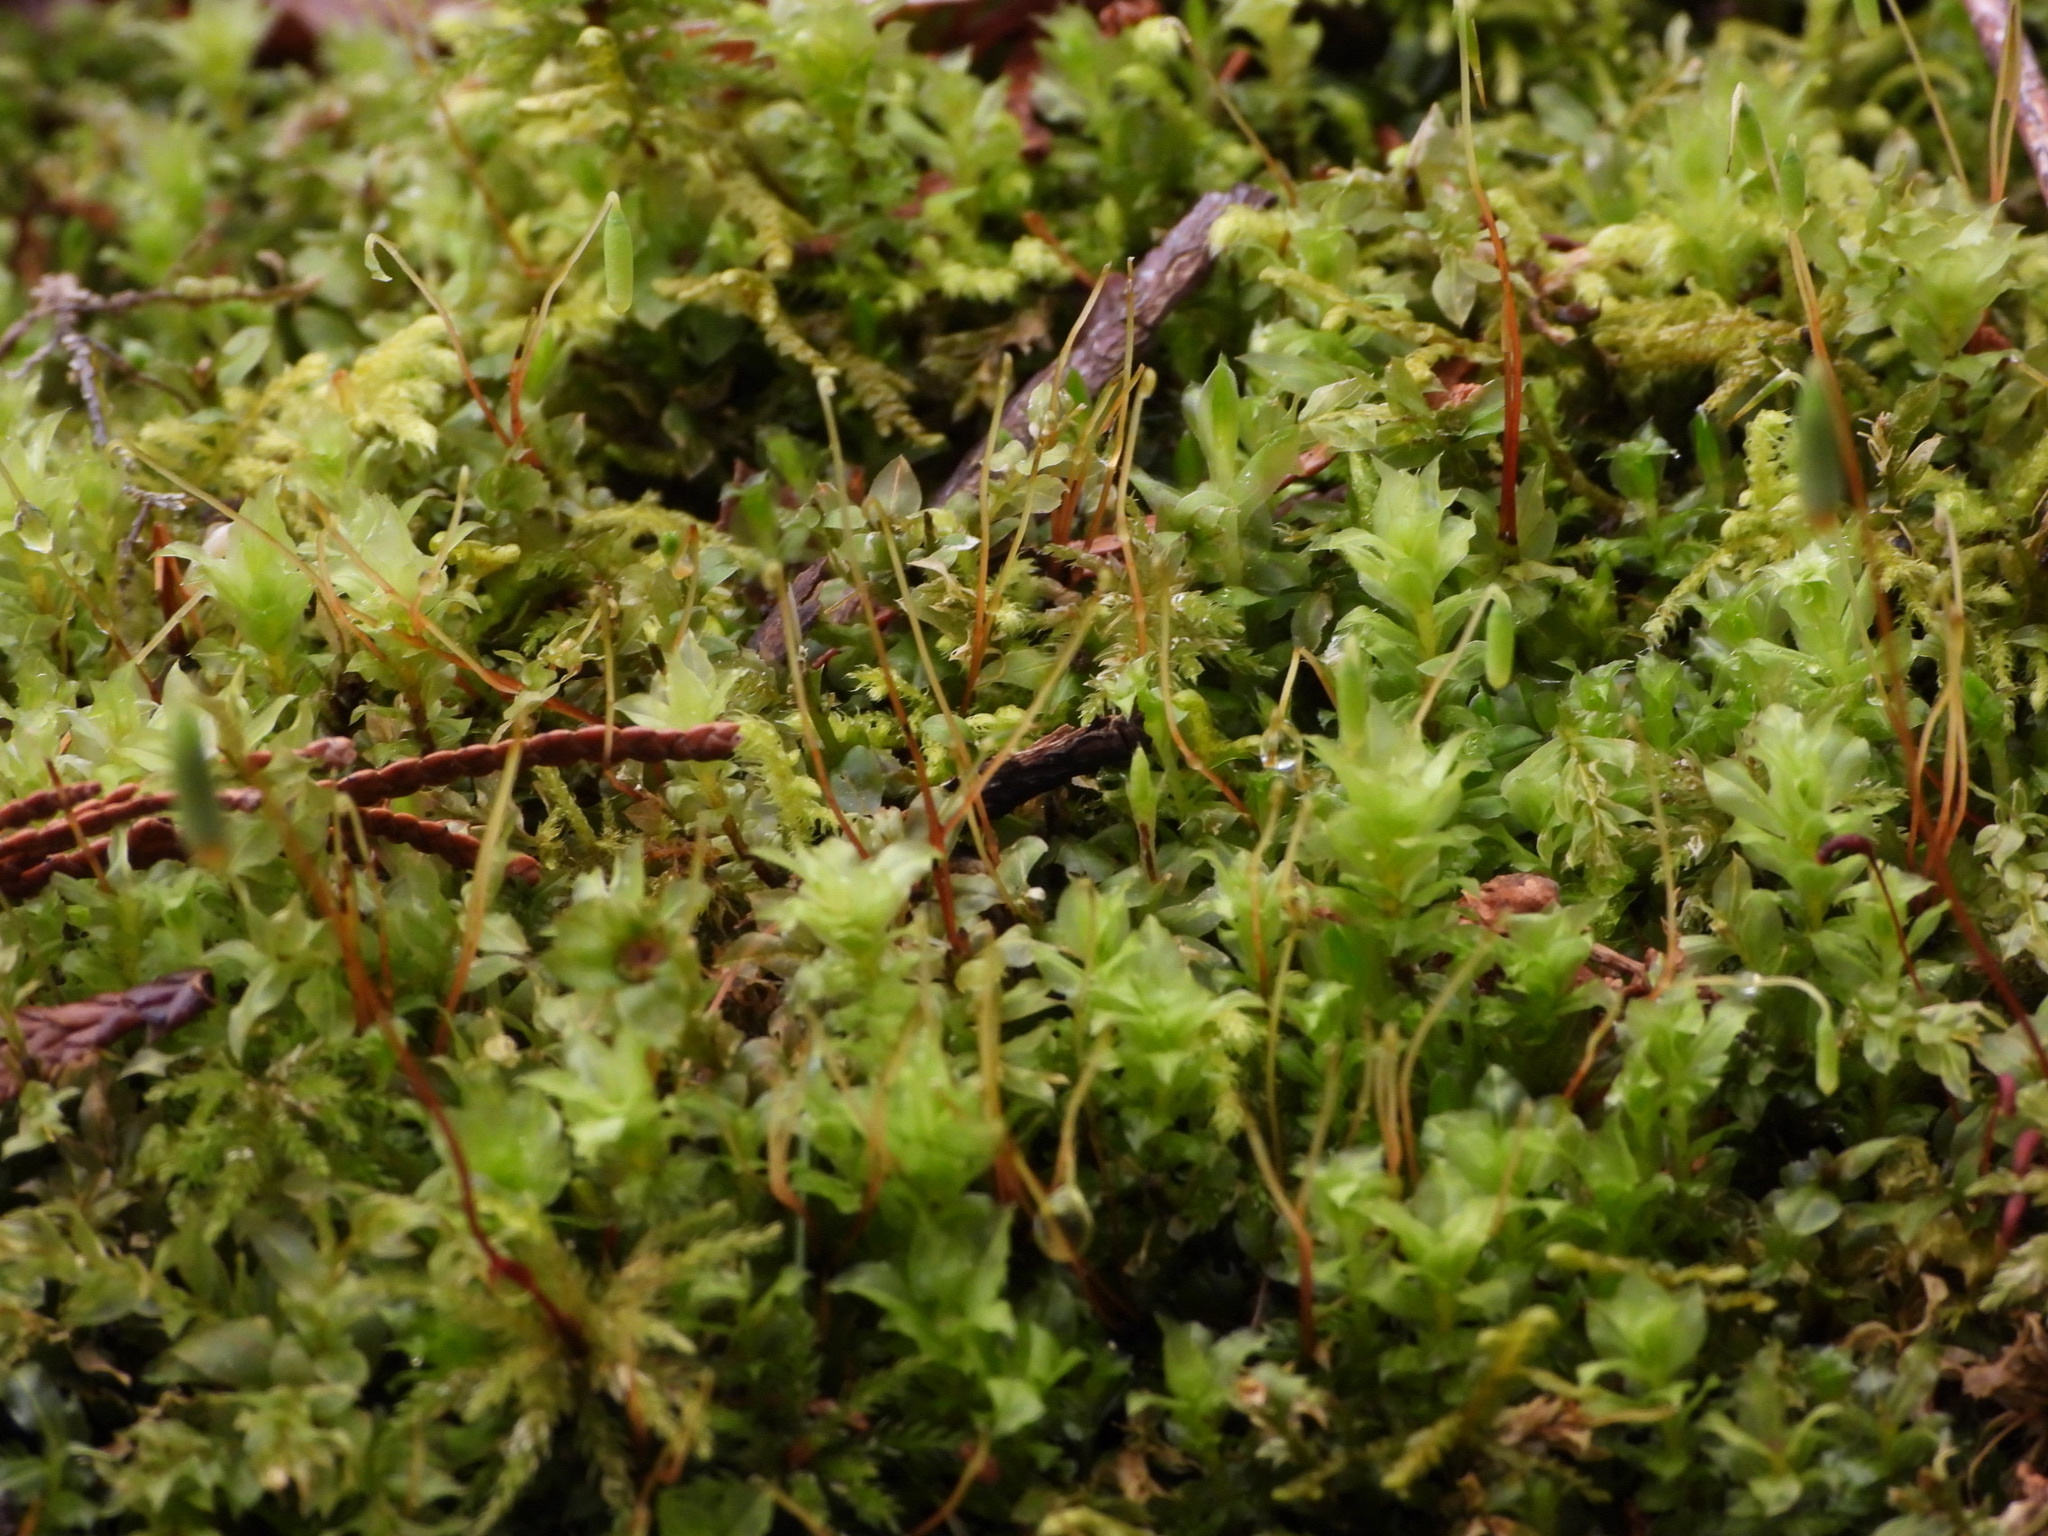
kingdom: Plantae
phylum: Bryophyta
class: Bryopsida
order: Bryales
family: Mniaceae
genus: Plagiomnium
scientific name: Plagiomnium insigne
